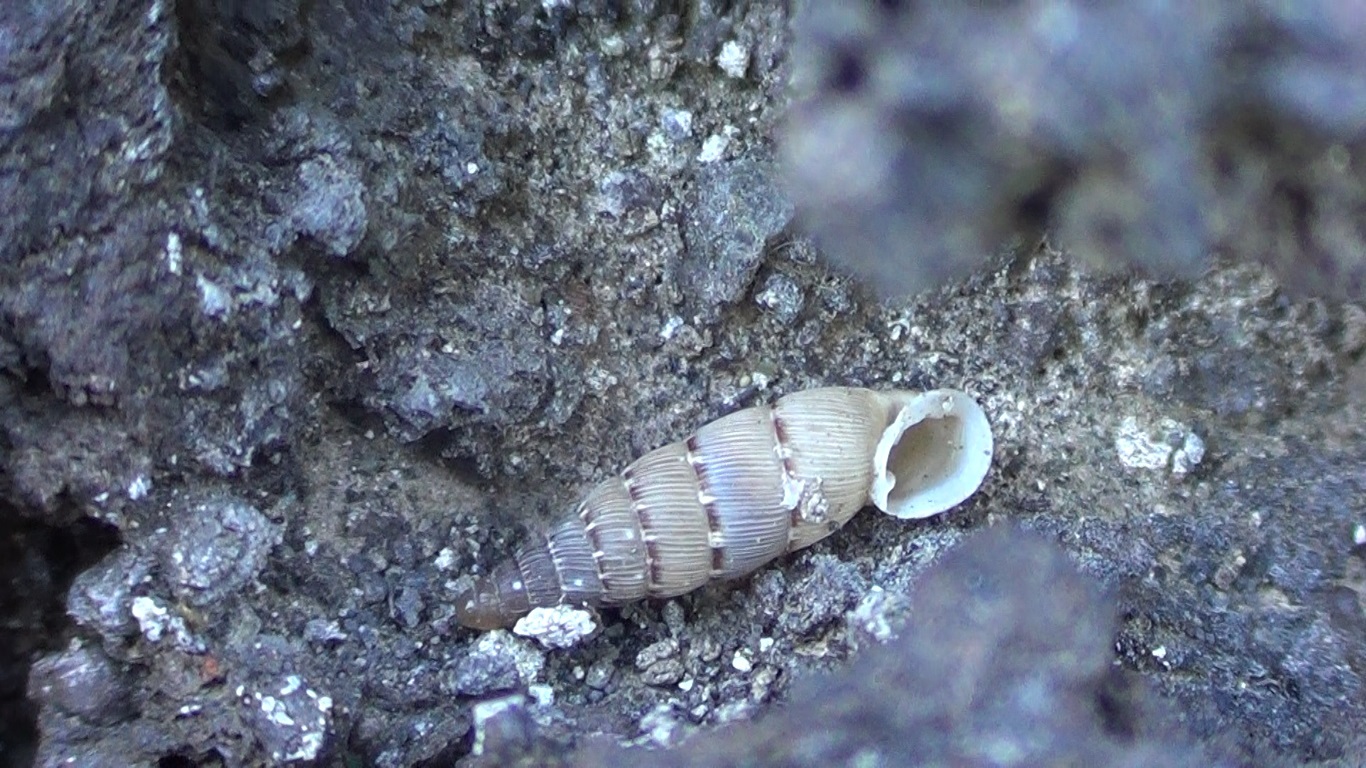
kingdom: Animalia
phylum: Mollusca
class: Gastropoda
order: Stylommatophora
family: Clausiliidae
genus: Papillifera
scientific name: Papillifera papillaris
